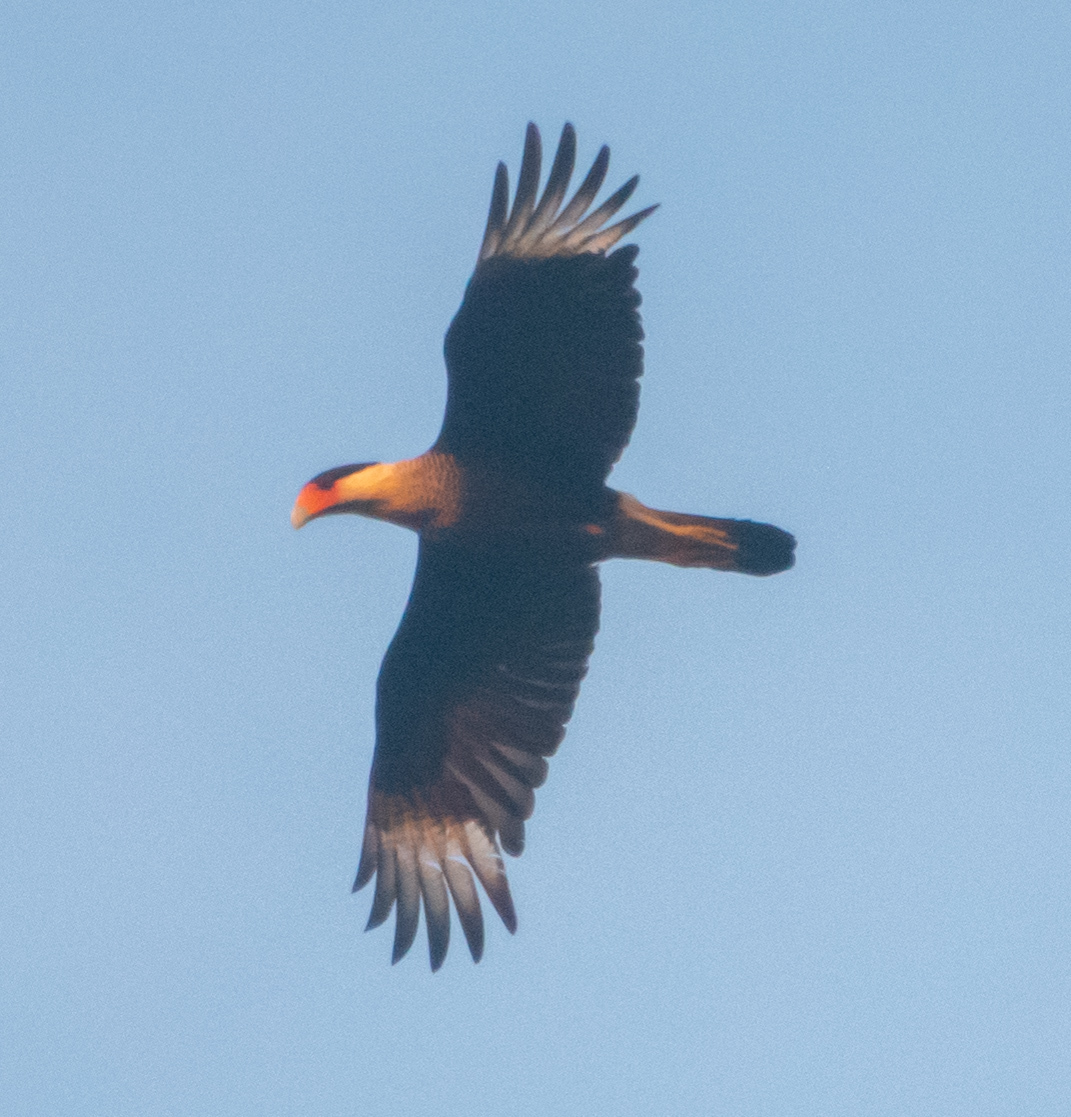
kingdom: Animalia
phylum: Chordata
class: Aves
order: Falconiformes
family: Falconidae
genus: Caracara
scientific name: Caracara plancus
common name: Southern caracara
